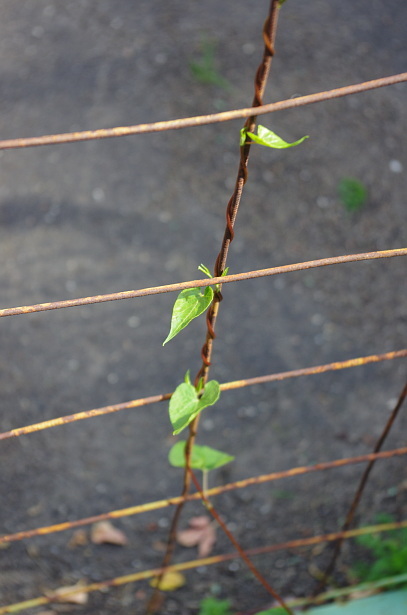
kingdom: Plantae
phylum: Tracheophyta
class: Magnoliopsida
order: Caryophyllales
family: Polygonaceae
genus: Fallopia
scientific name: Fallopia dumetorum
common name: Copse-bindweed
